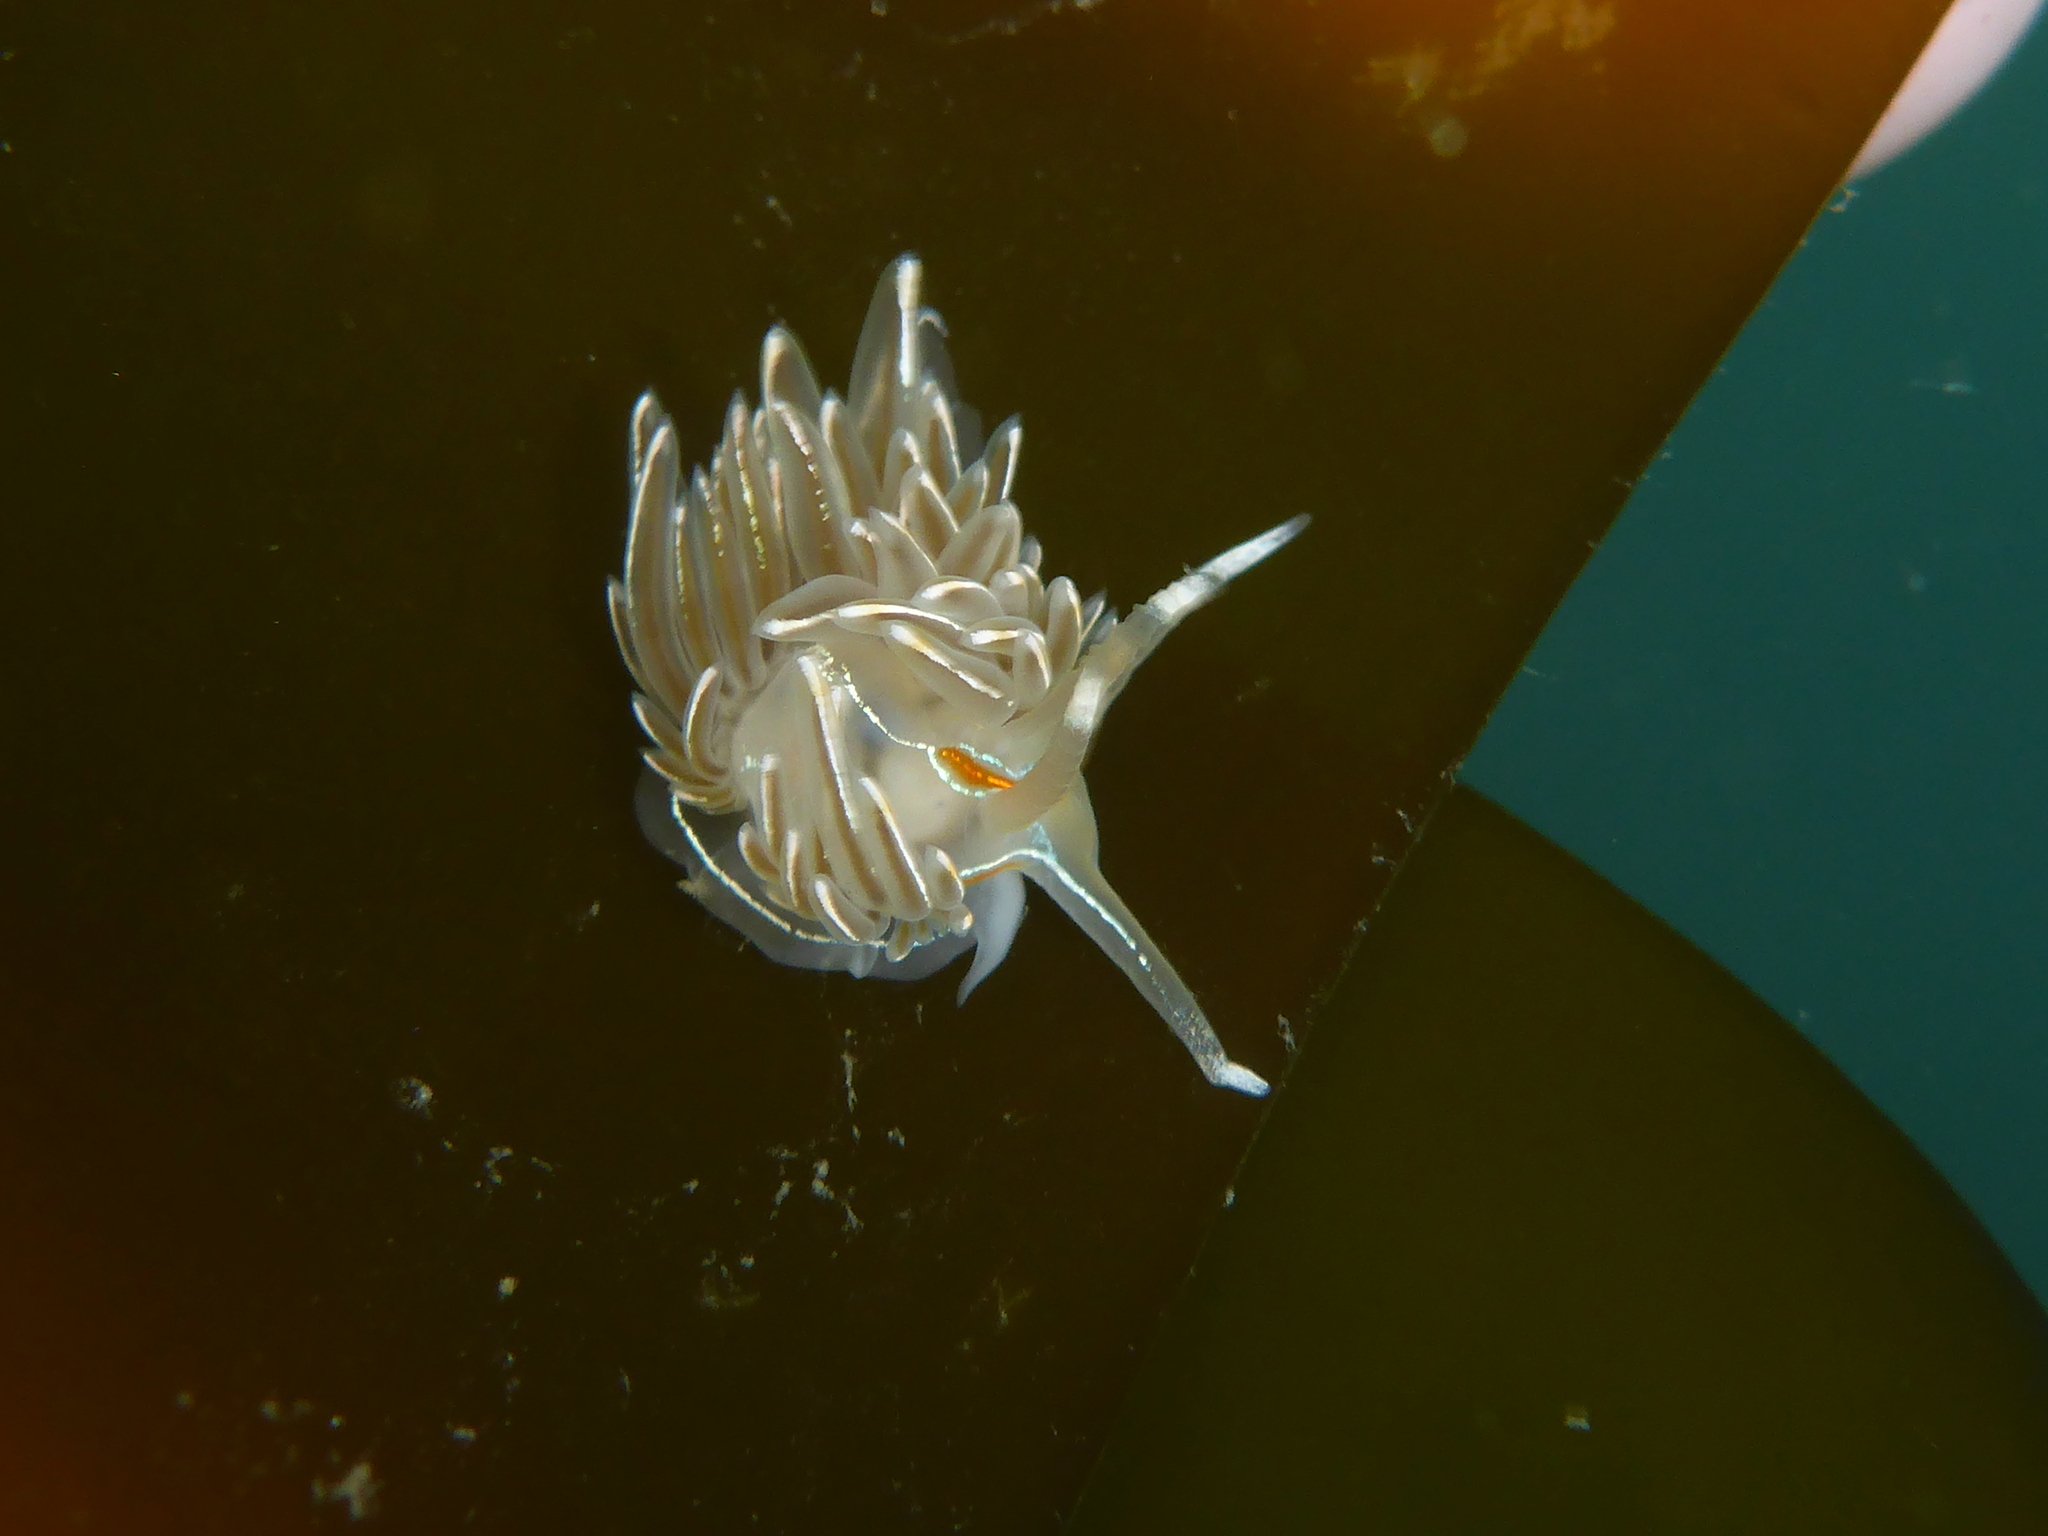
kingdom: Animalia
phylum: Mollusca
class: Gastropoda
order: Nudibranchia
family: Myrrhinidae
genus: Hermissenda
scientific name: Hermissenda crassicornis
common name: Hermissenda
